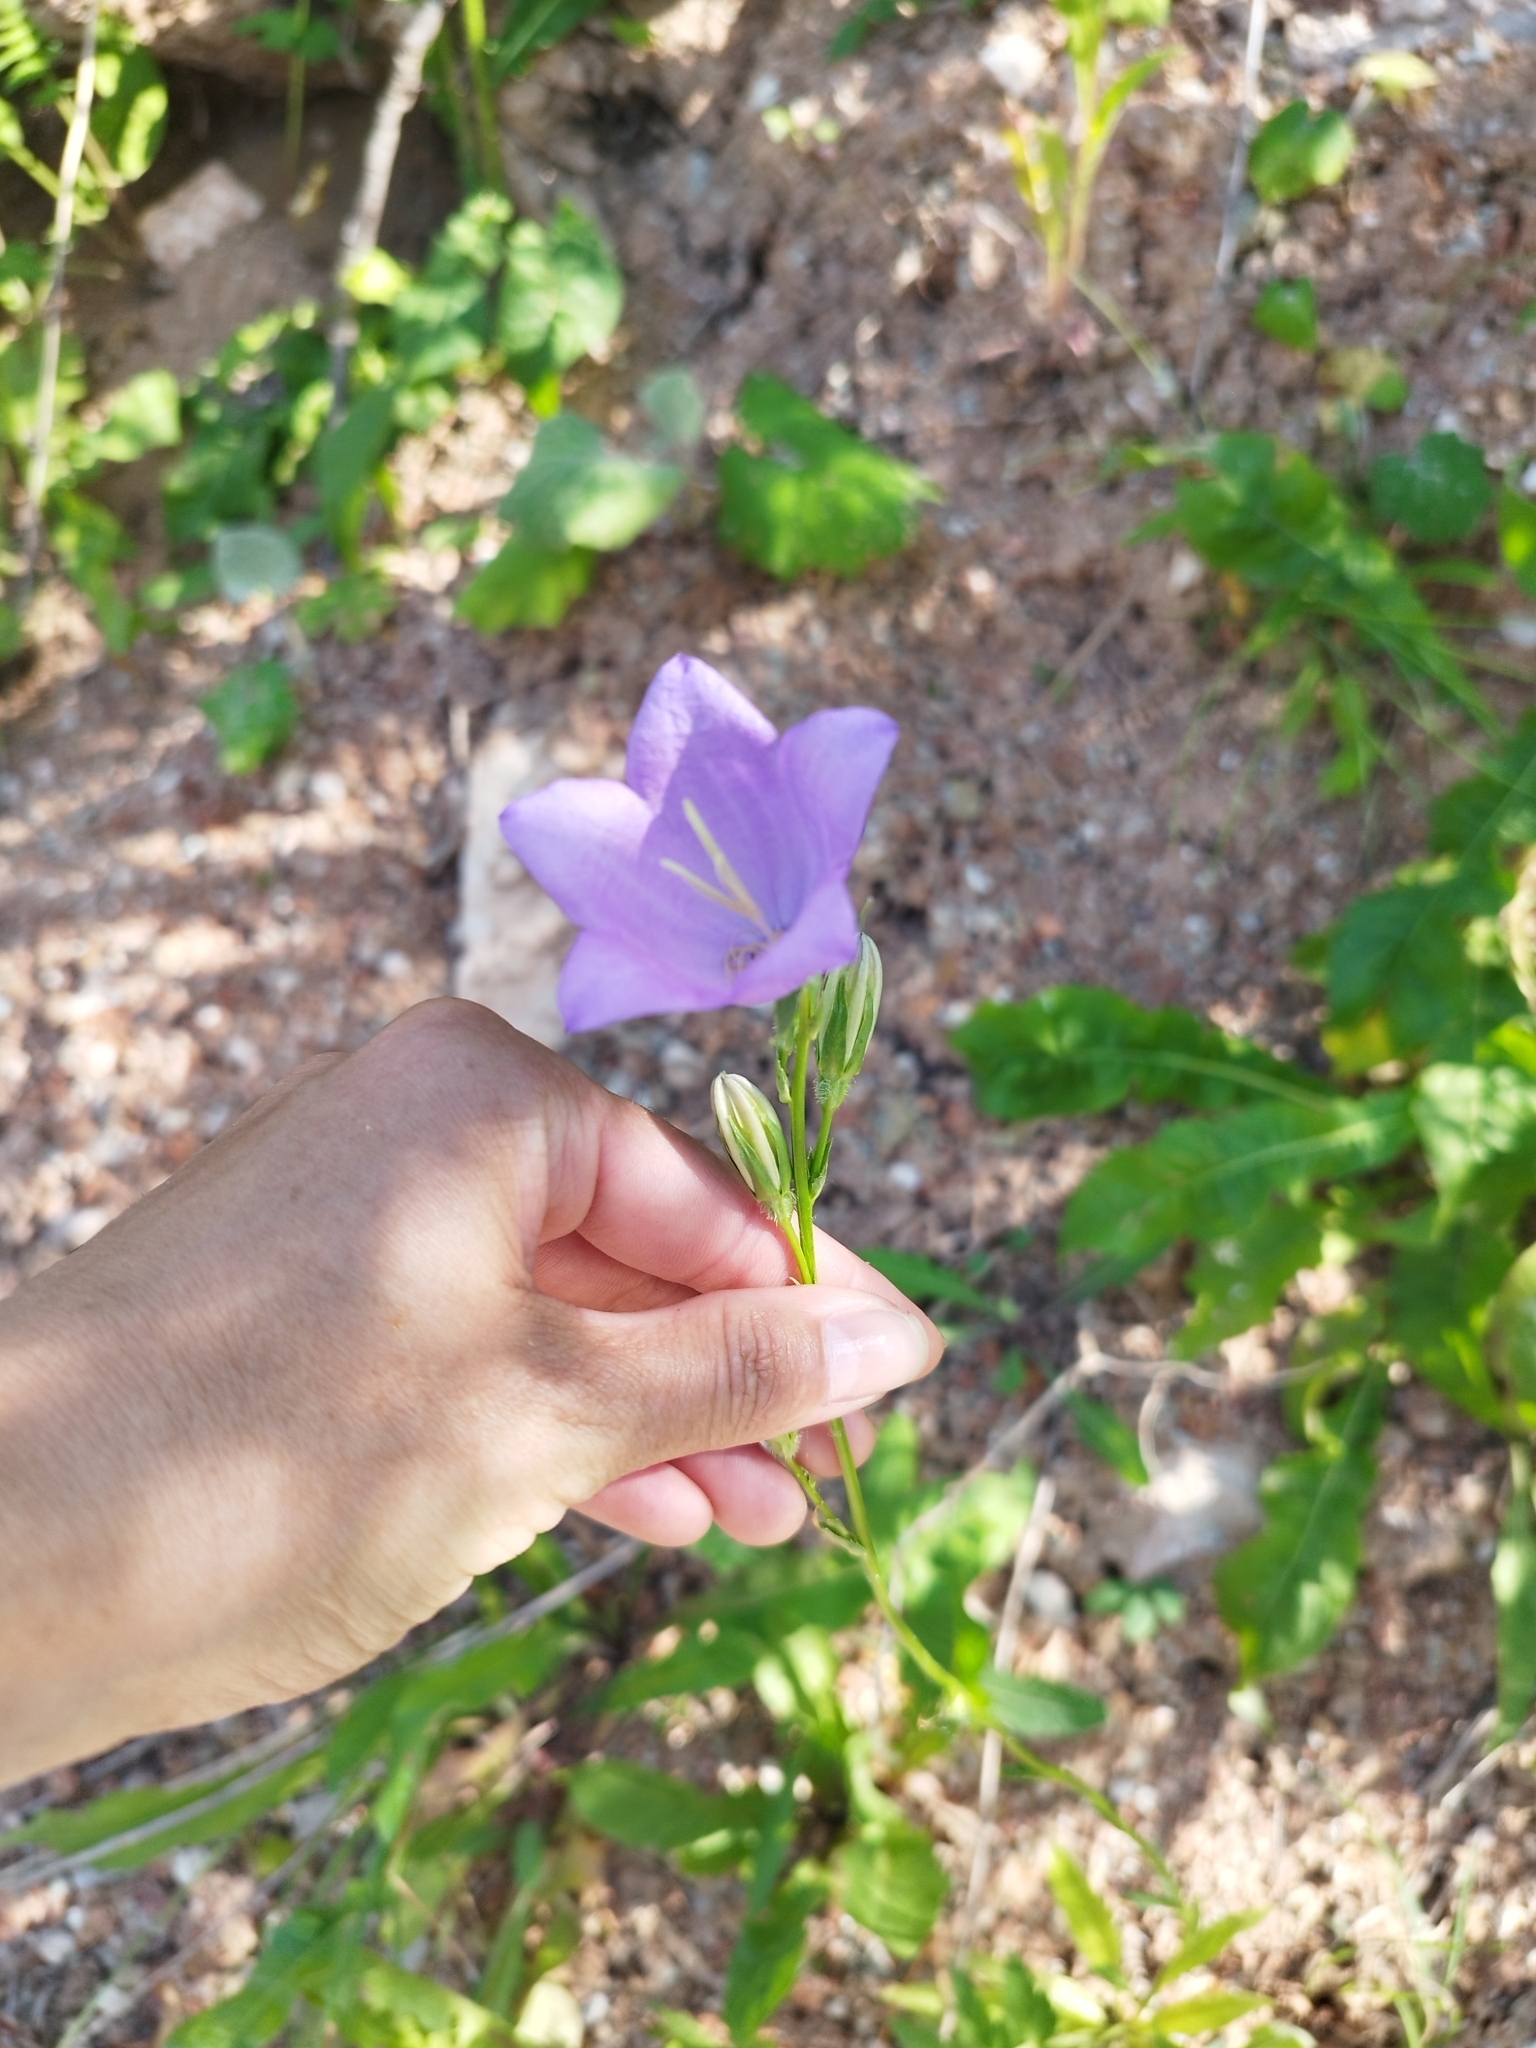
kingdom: Plantae
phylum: Tracheophyta
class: Magnoliopsida
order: Asterales
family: Campanulaceae
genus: Campanula
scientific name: Campanula persicifolia
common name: Peach-leaved bellflower
